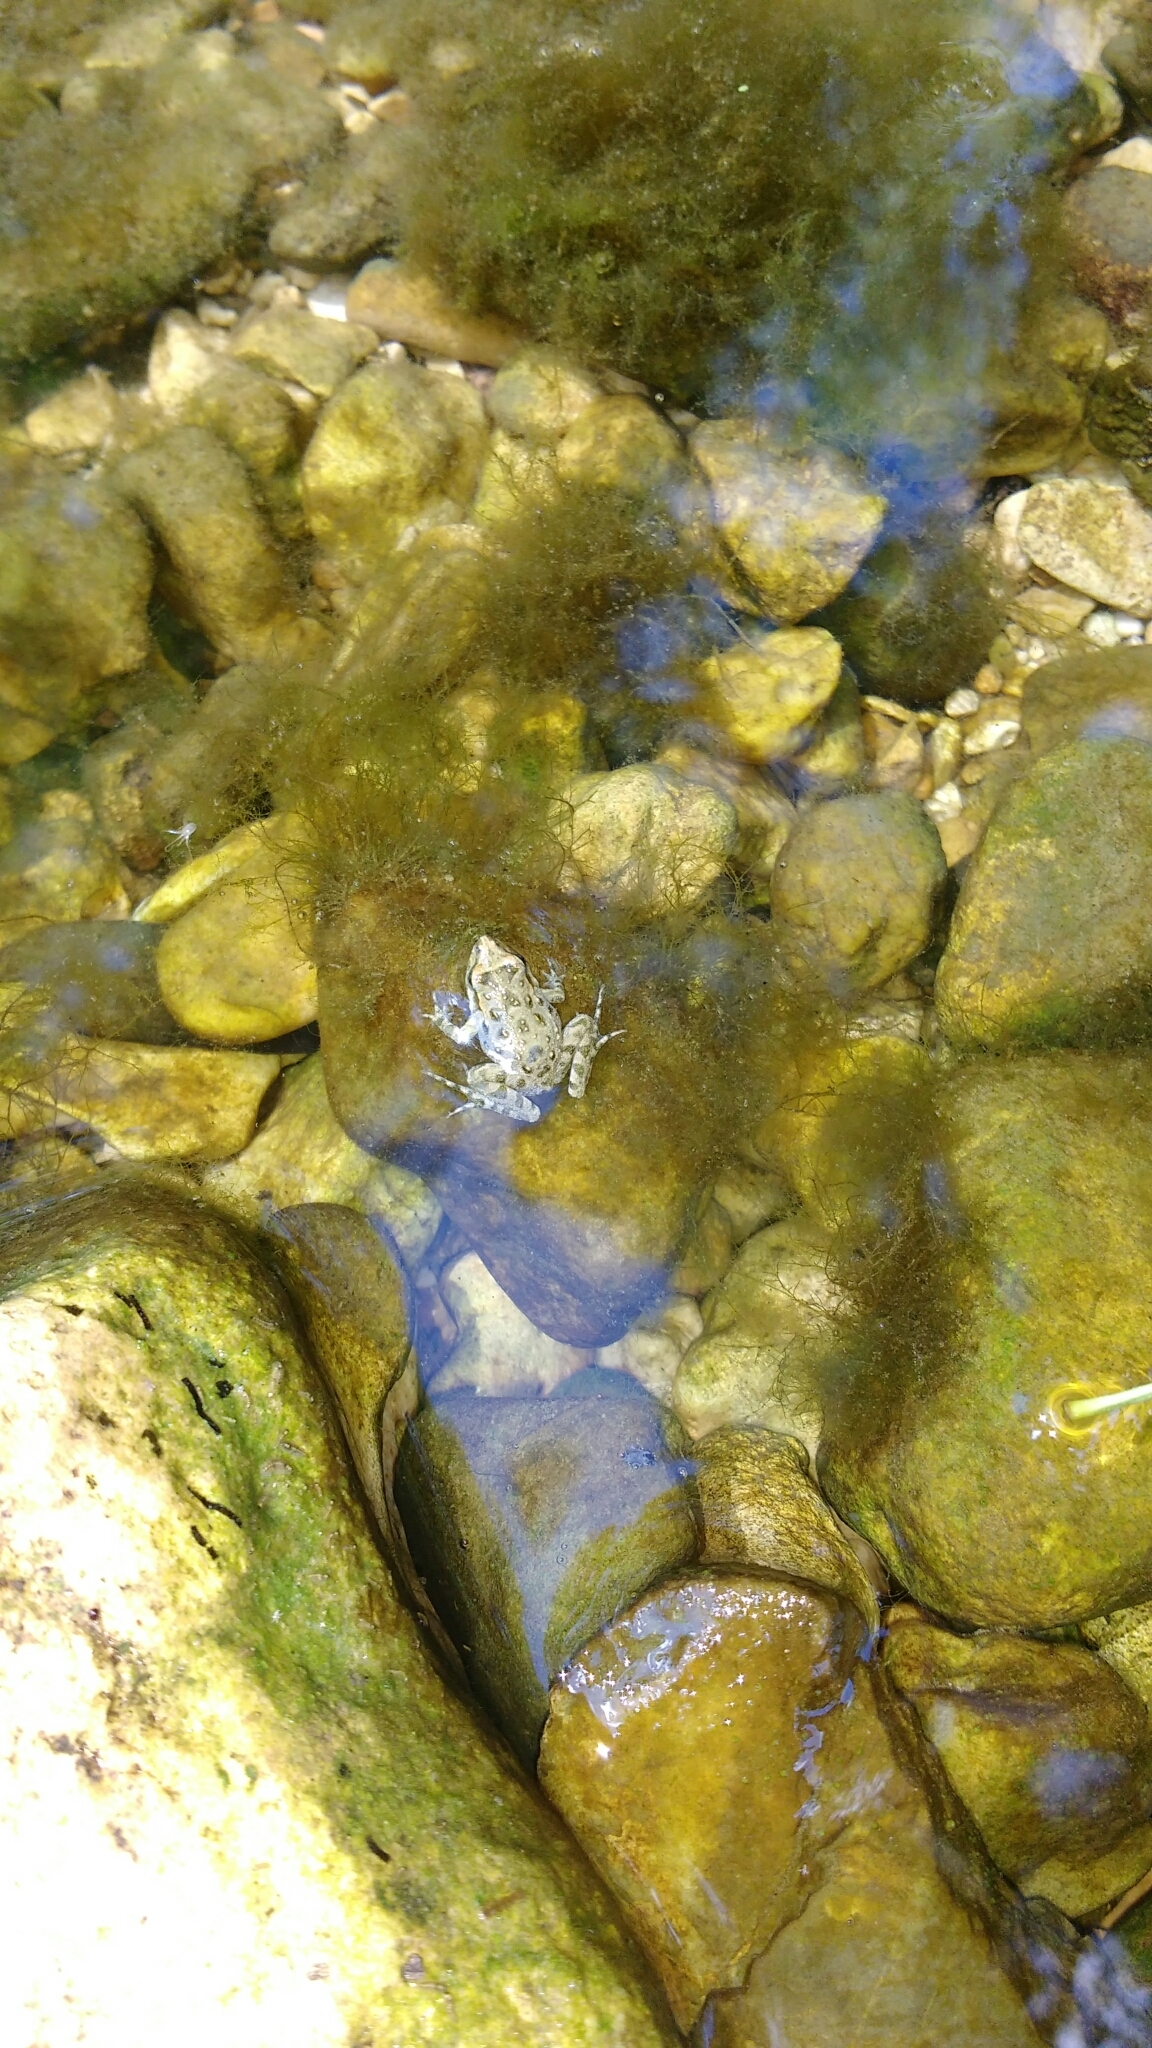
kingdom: Animalia
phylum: Chordata
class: Amphibia
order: Anura
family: Alytidae
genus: Discoglossus
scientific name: Discoglossus pictus
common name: Painted frog
